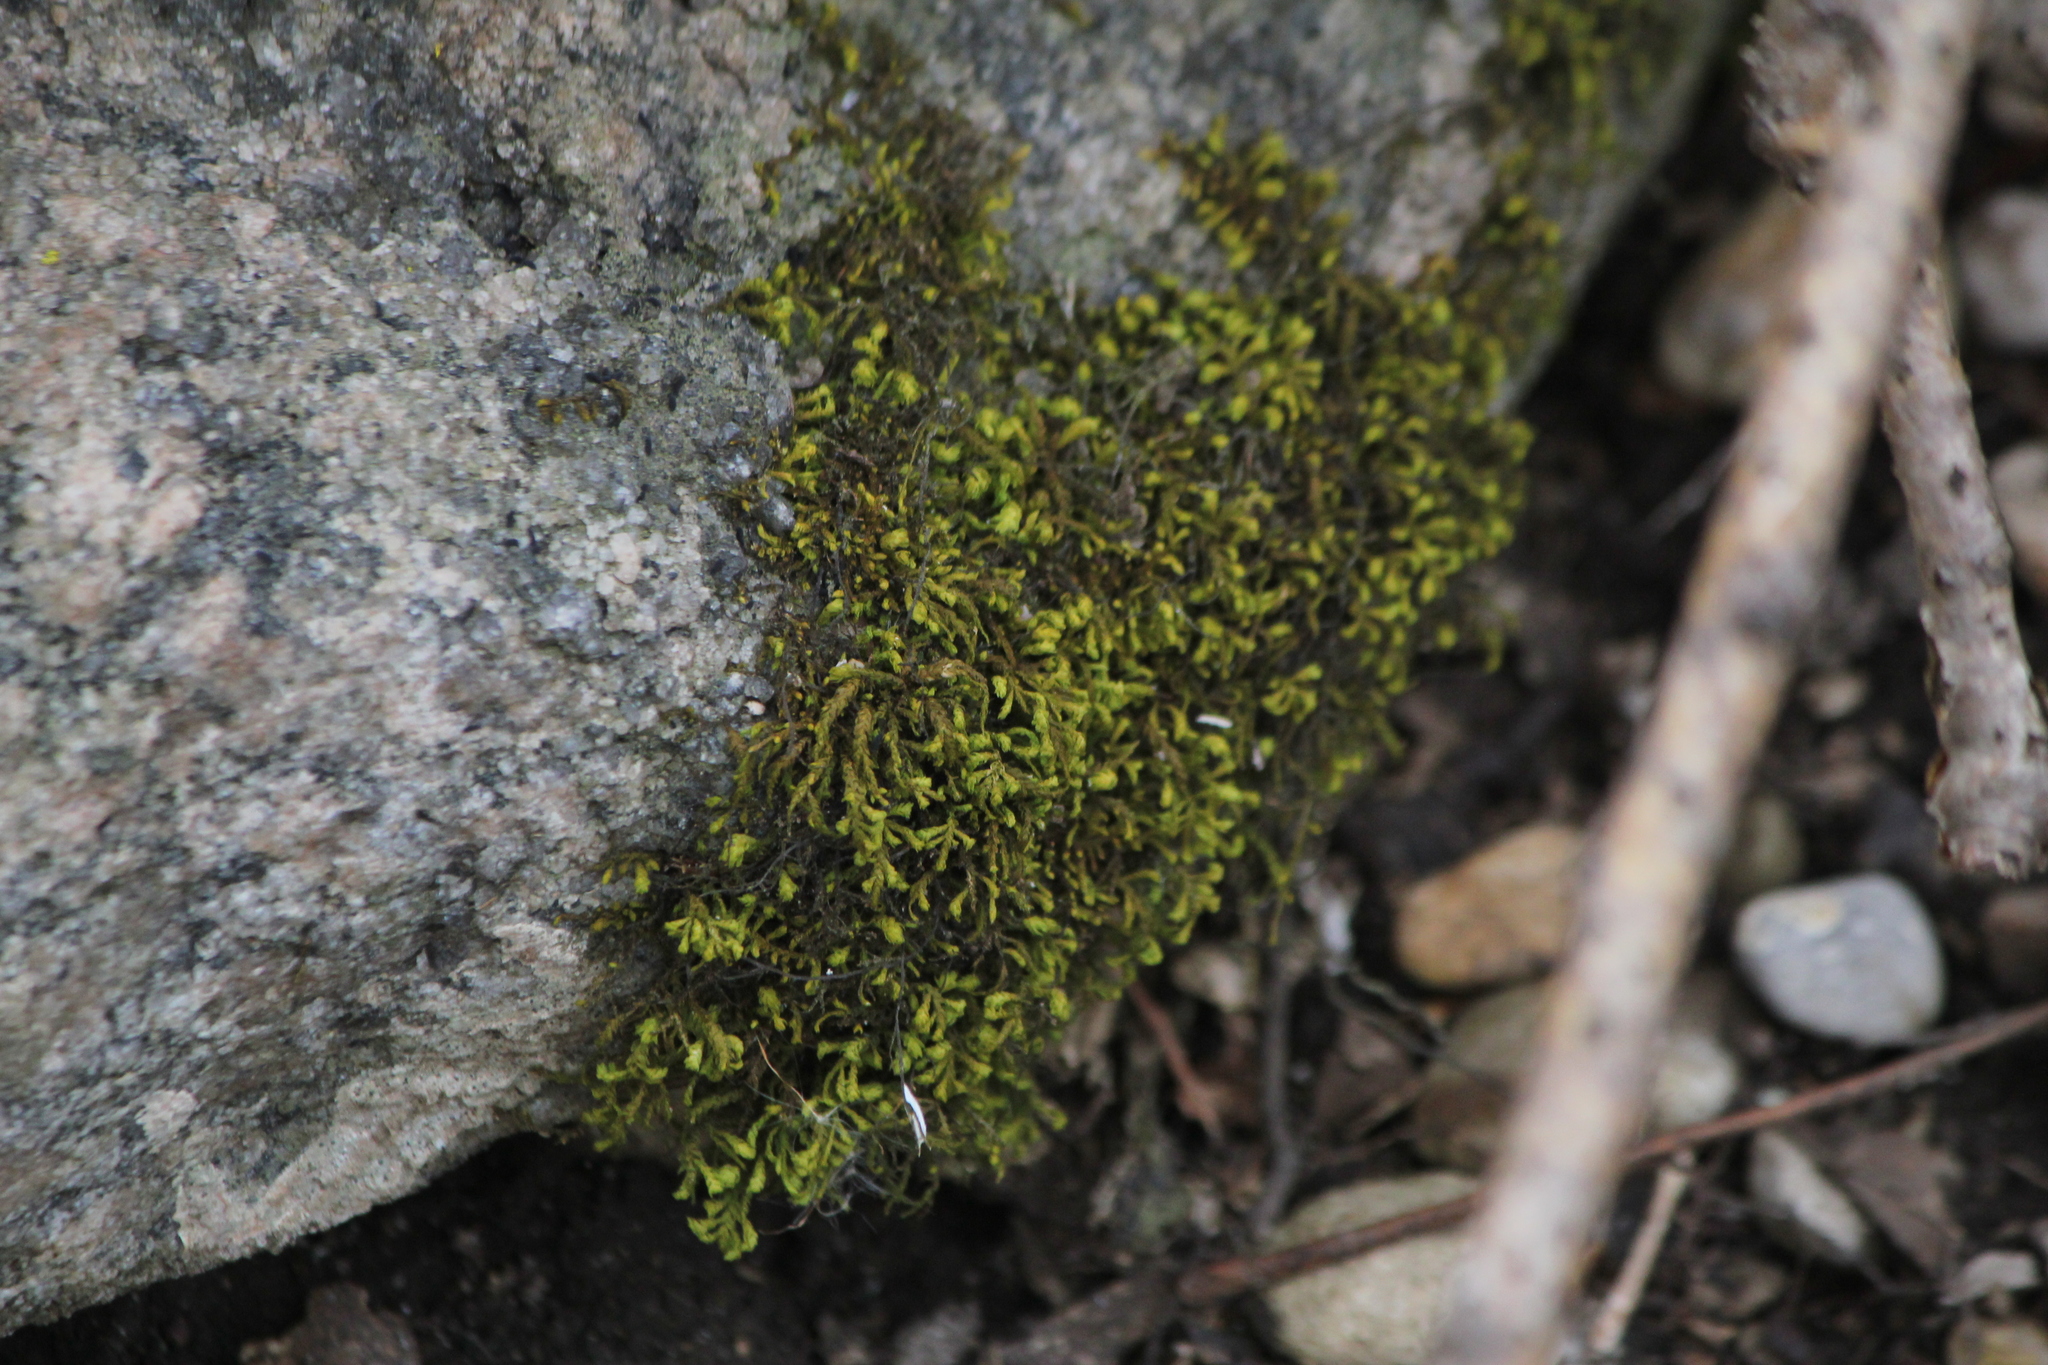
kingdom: Plantae
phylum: Bryophyta
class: Bryopsida
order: Hypnales
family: Neckeraceae
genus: Pseudanomodon
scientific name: Pseudanomodon attenuatus
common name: Tree-skirt moss
